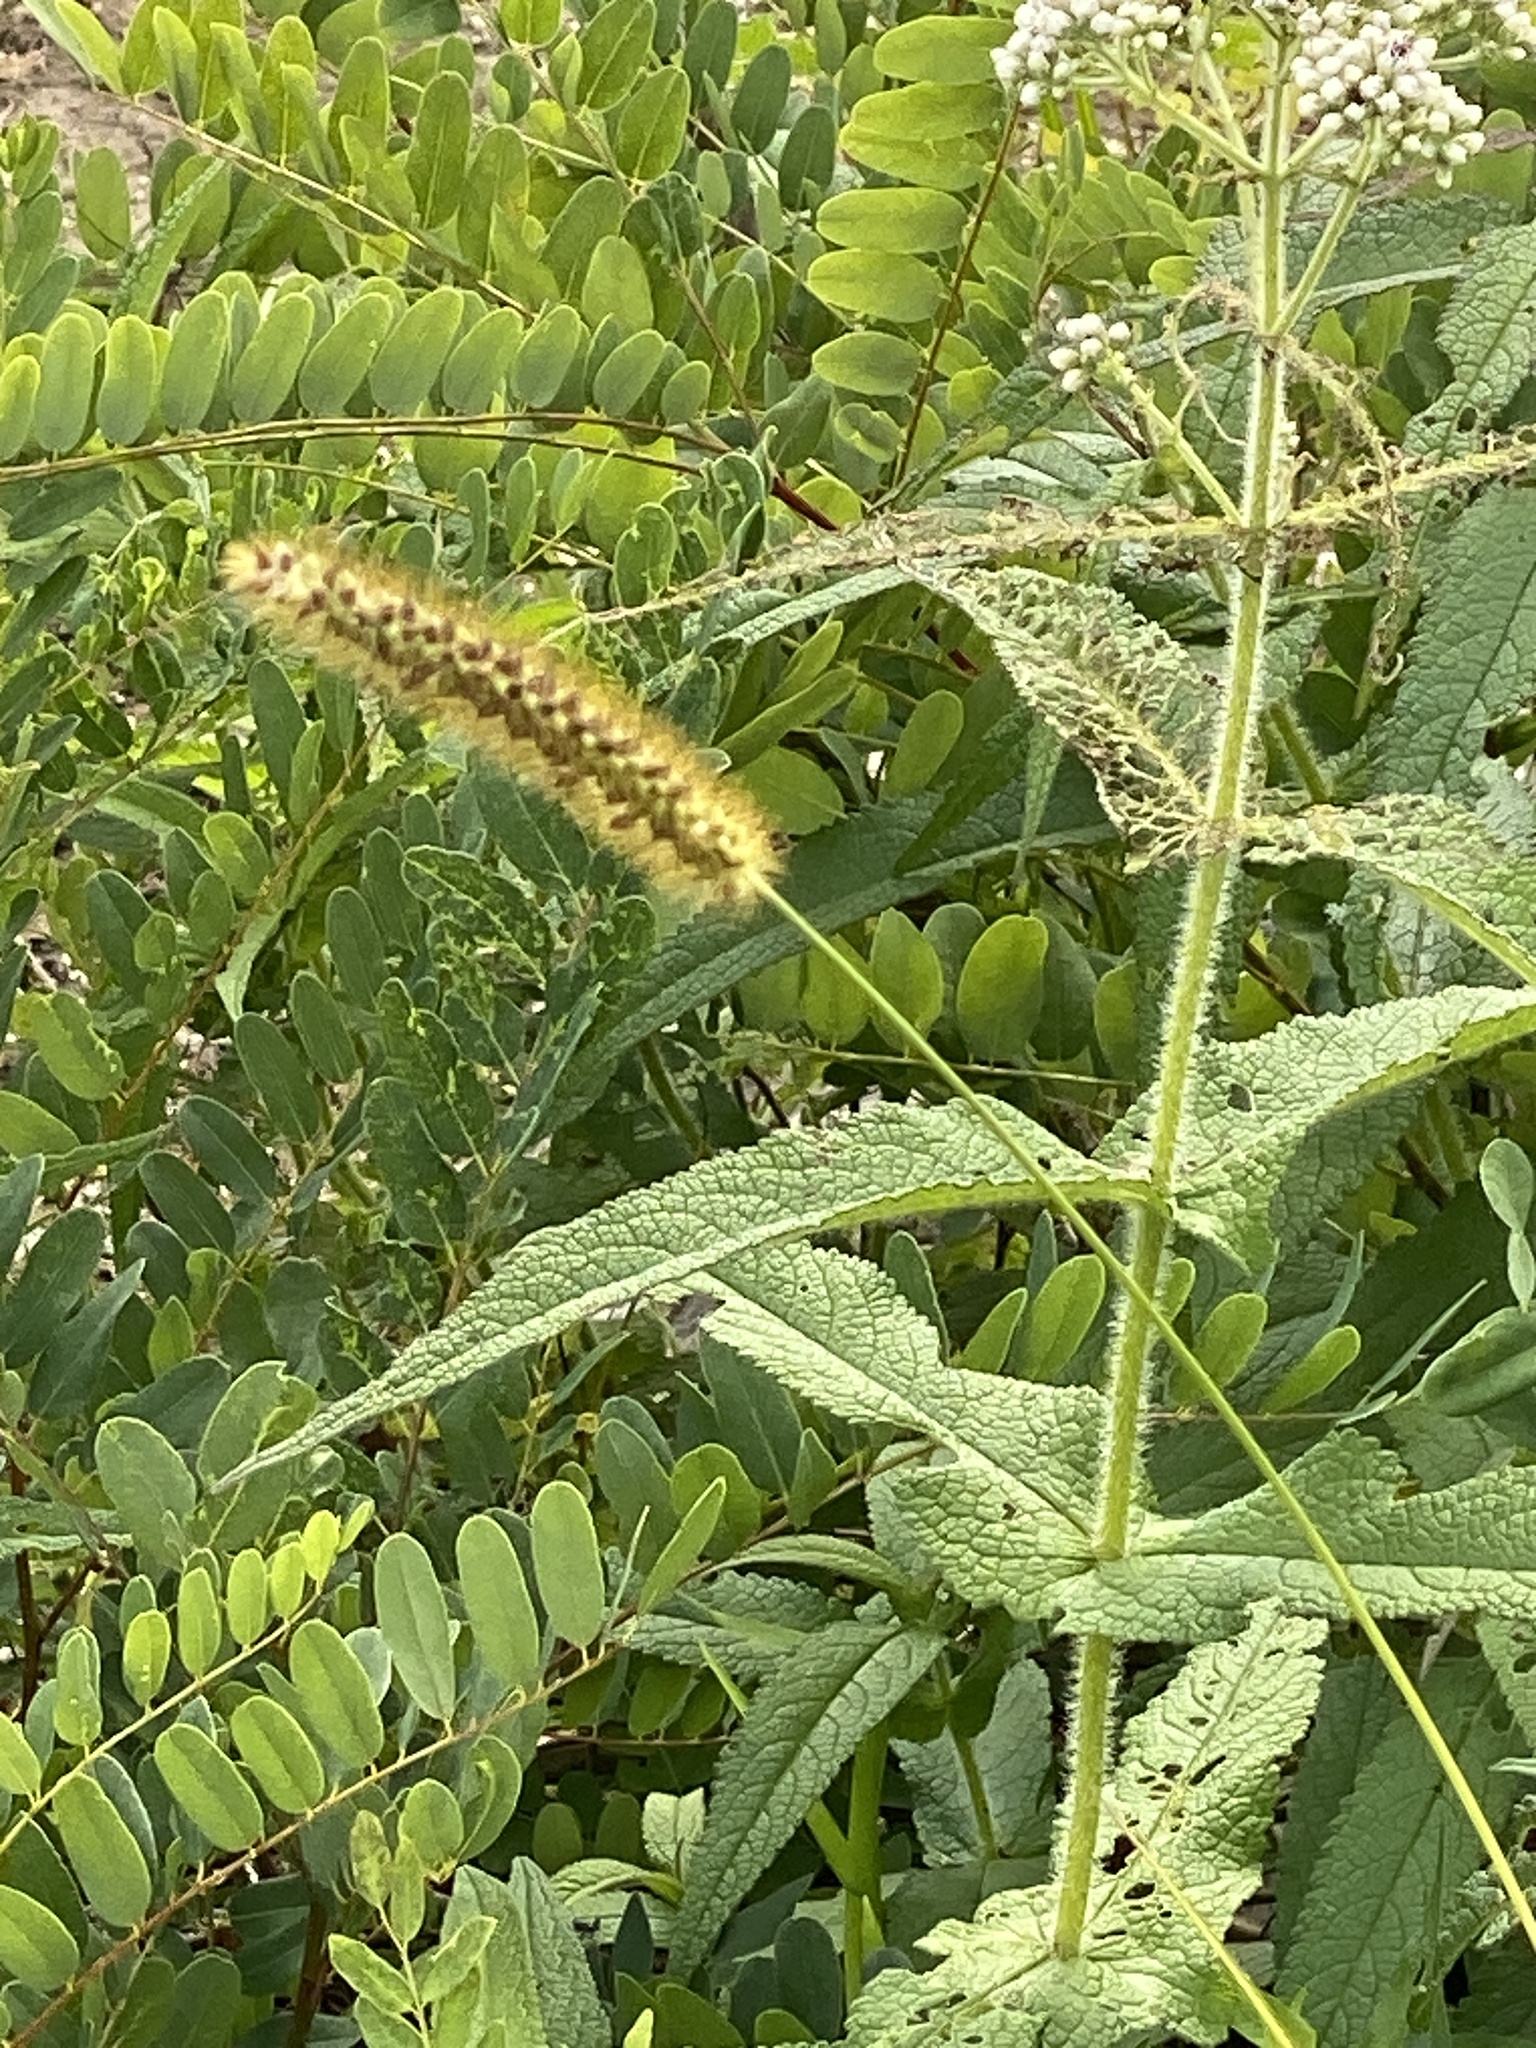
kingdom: Plantae
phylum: Tracheophyta
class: Liliopsida
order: Poales
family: Poaceae
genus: Setaria
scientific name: Setaria pumila
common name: Yellow bristle-grass
